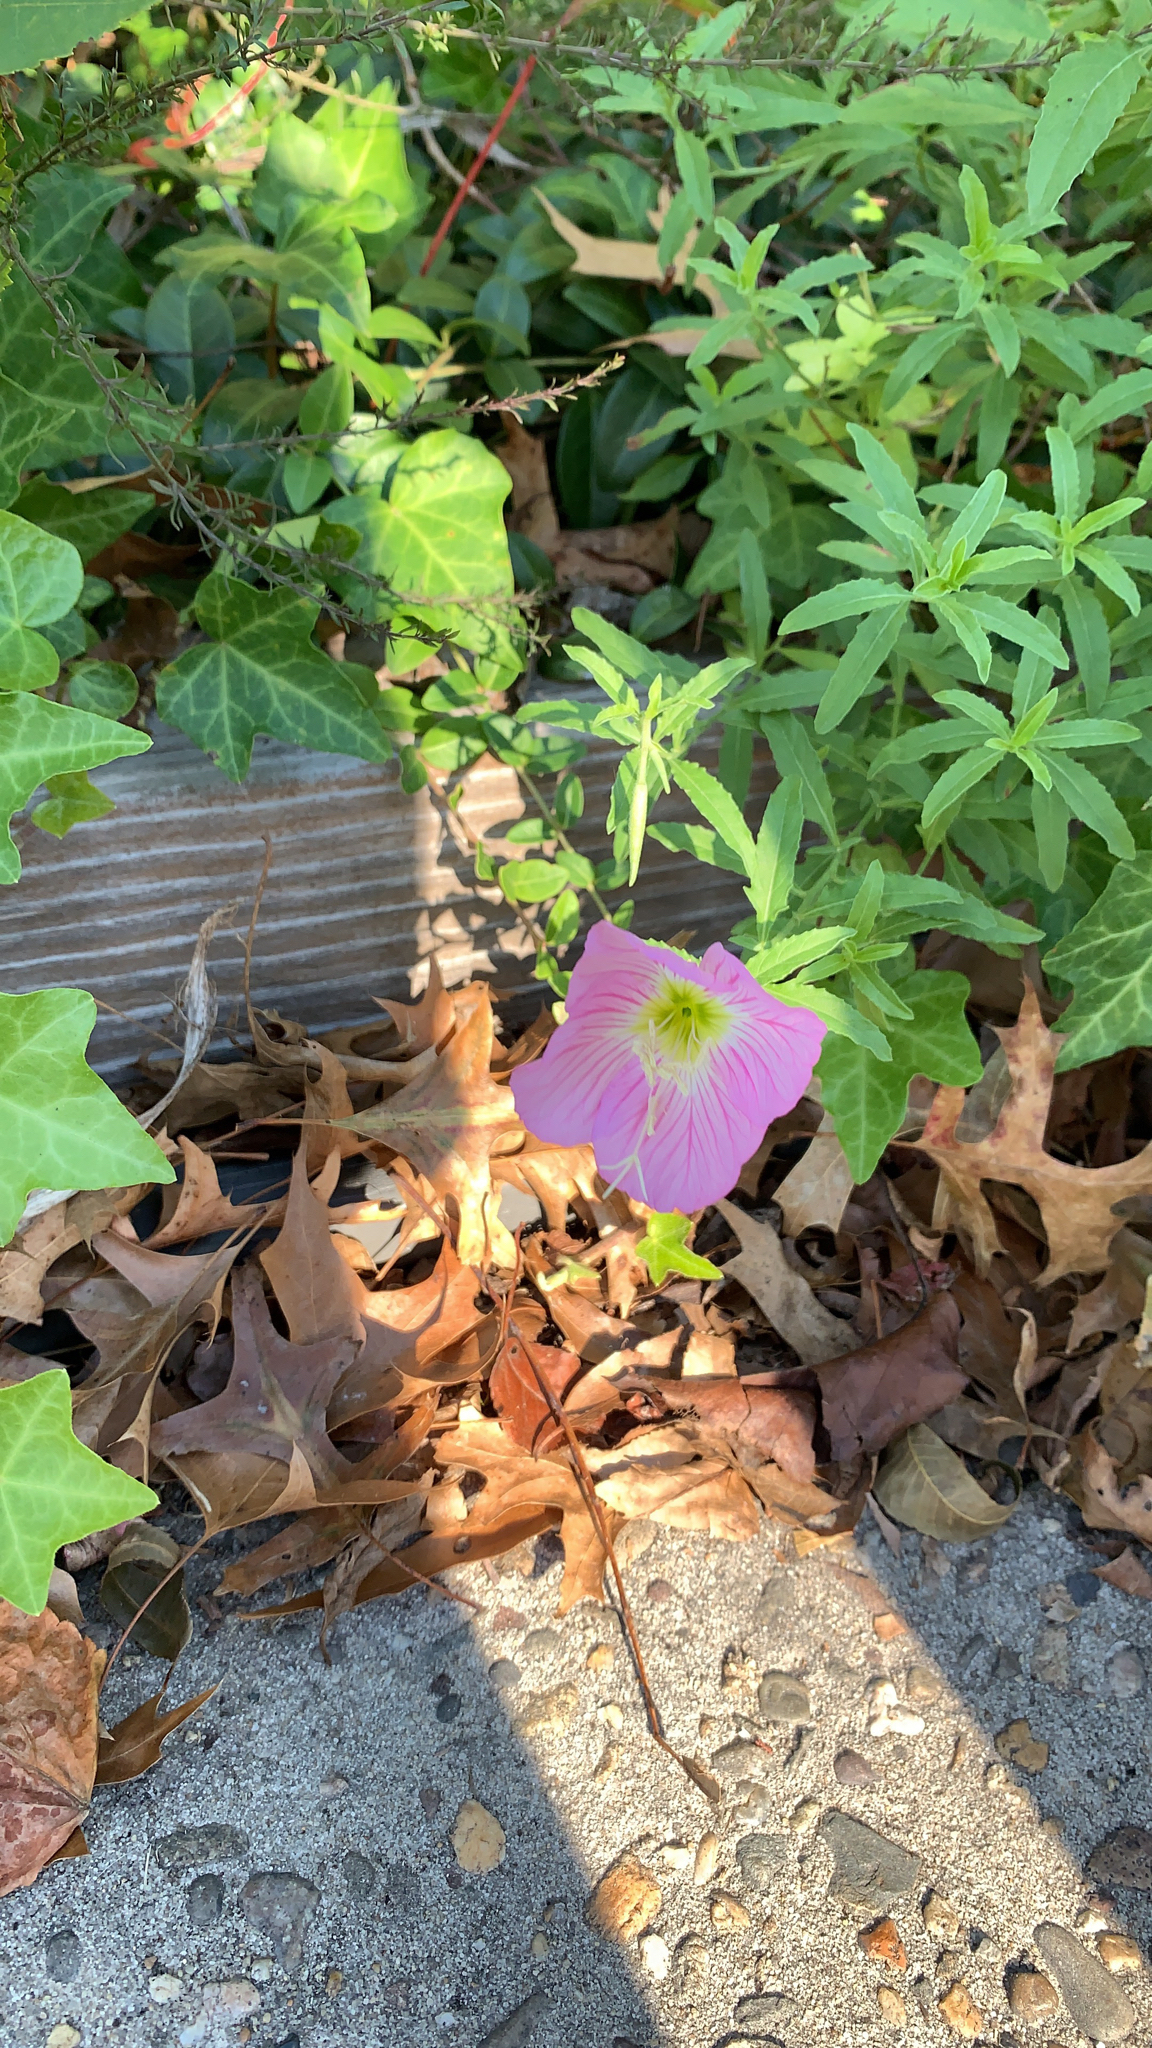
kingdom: Plantae
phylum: Tracheophyta
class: Magnoliopsida
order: Myrtales
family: Onagraceae
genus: Oenothera
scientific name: Oenothera speciosa
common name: White evening-primrose
